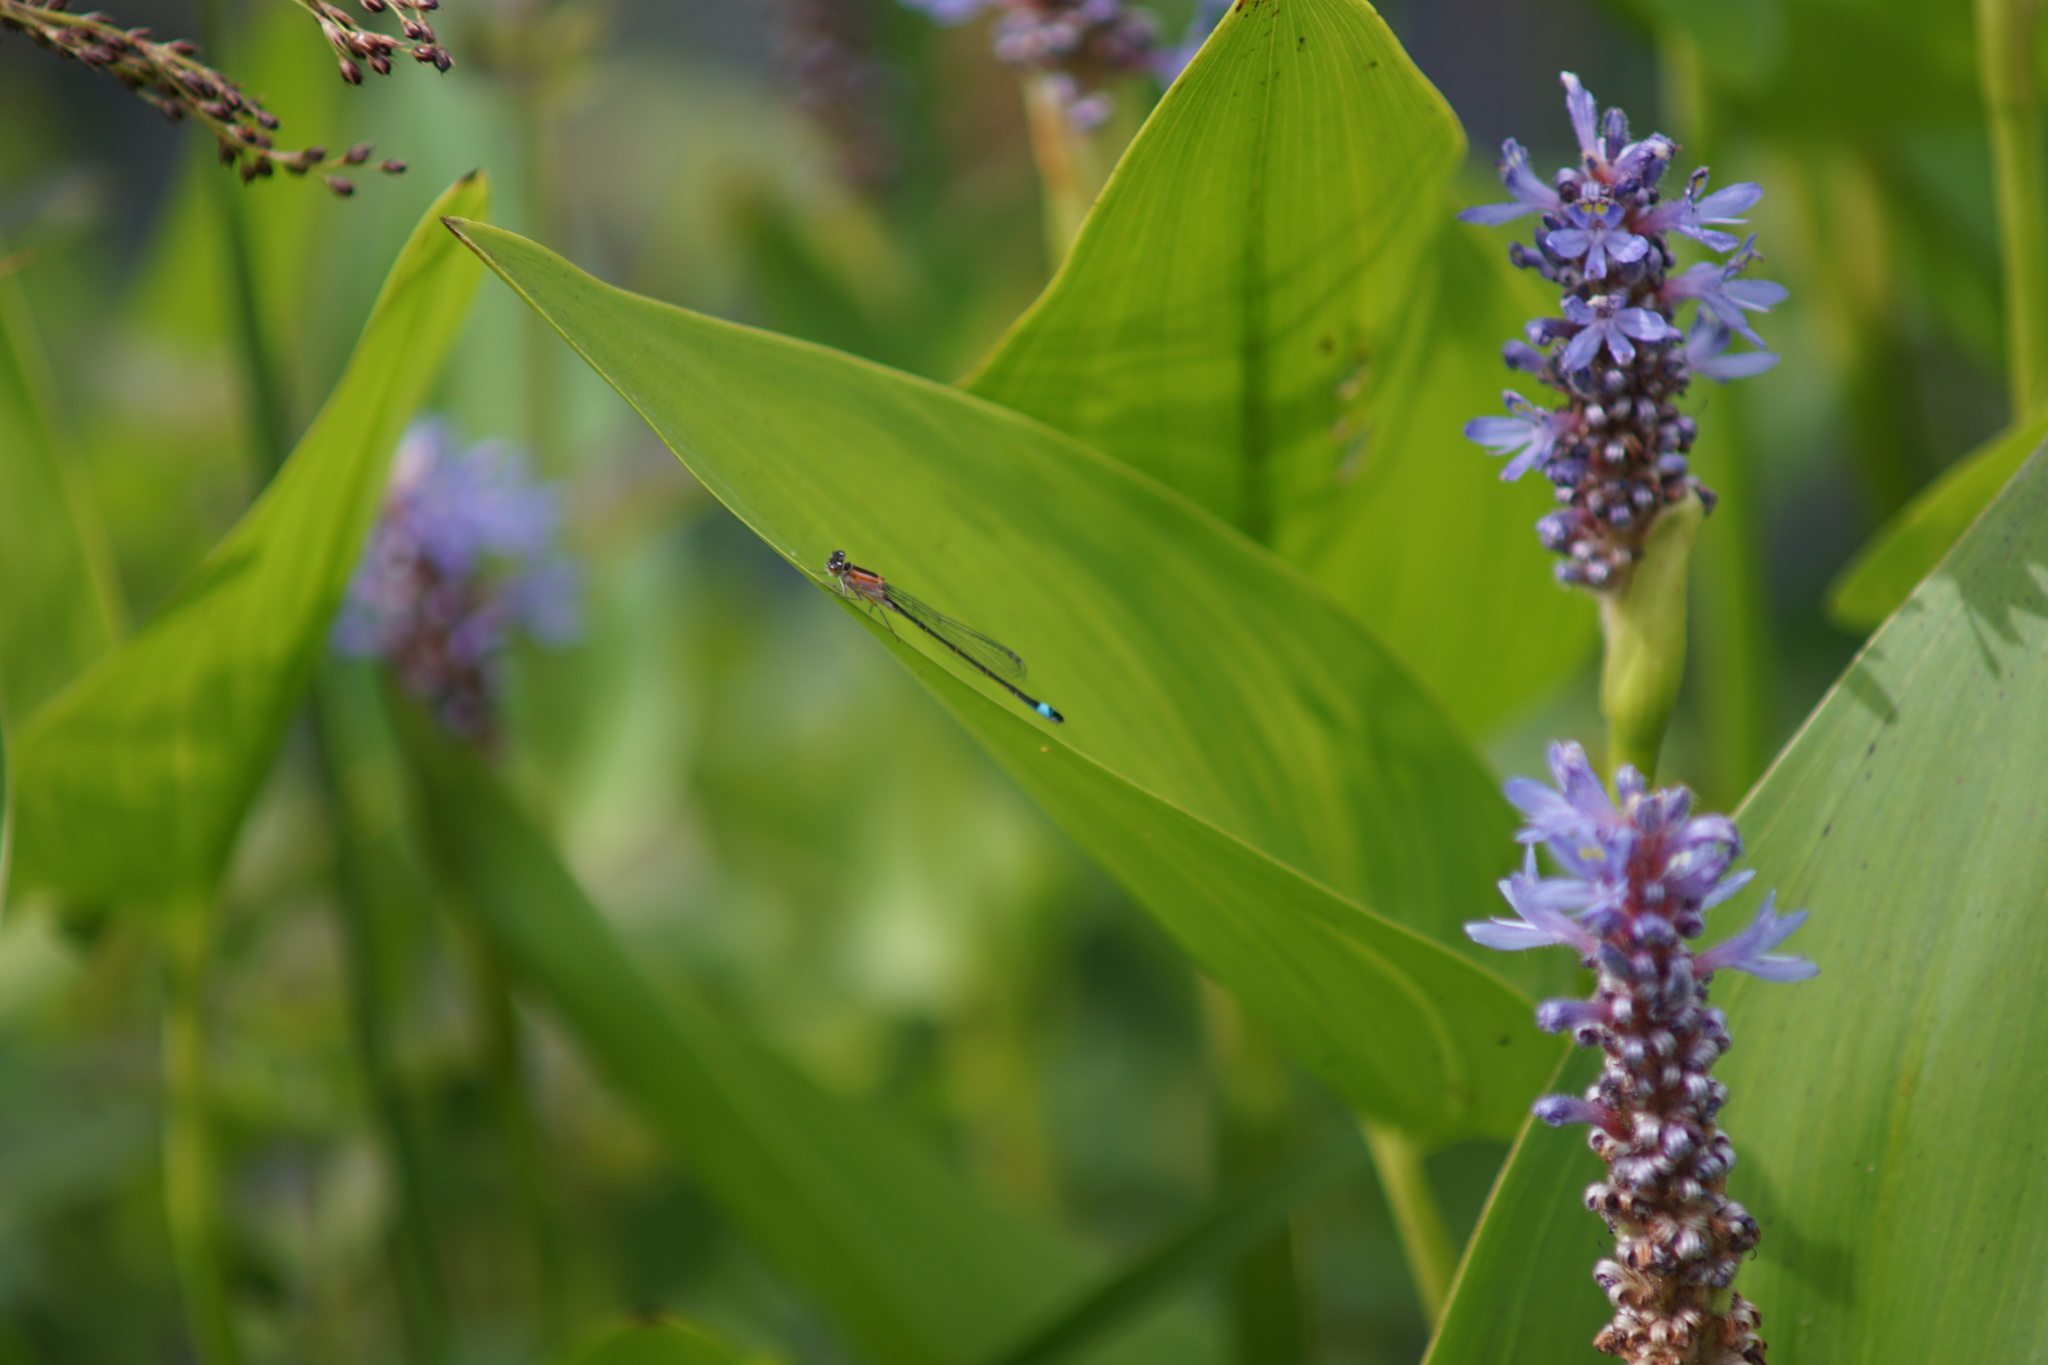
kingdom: Animalia
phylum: Arthropoda
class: Insecta
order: Odonata
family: Coenagrionidae
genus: Ischnura
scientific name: Ischnura elegans
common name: Blue-tailed damselfly
